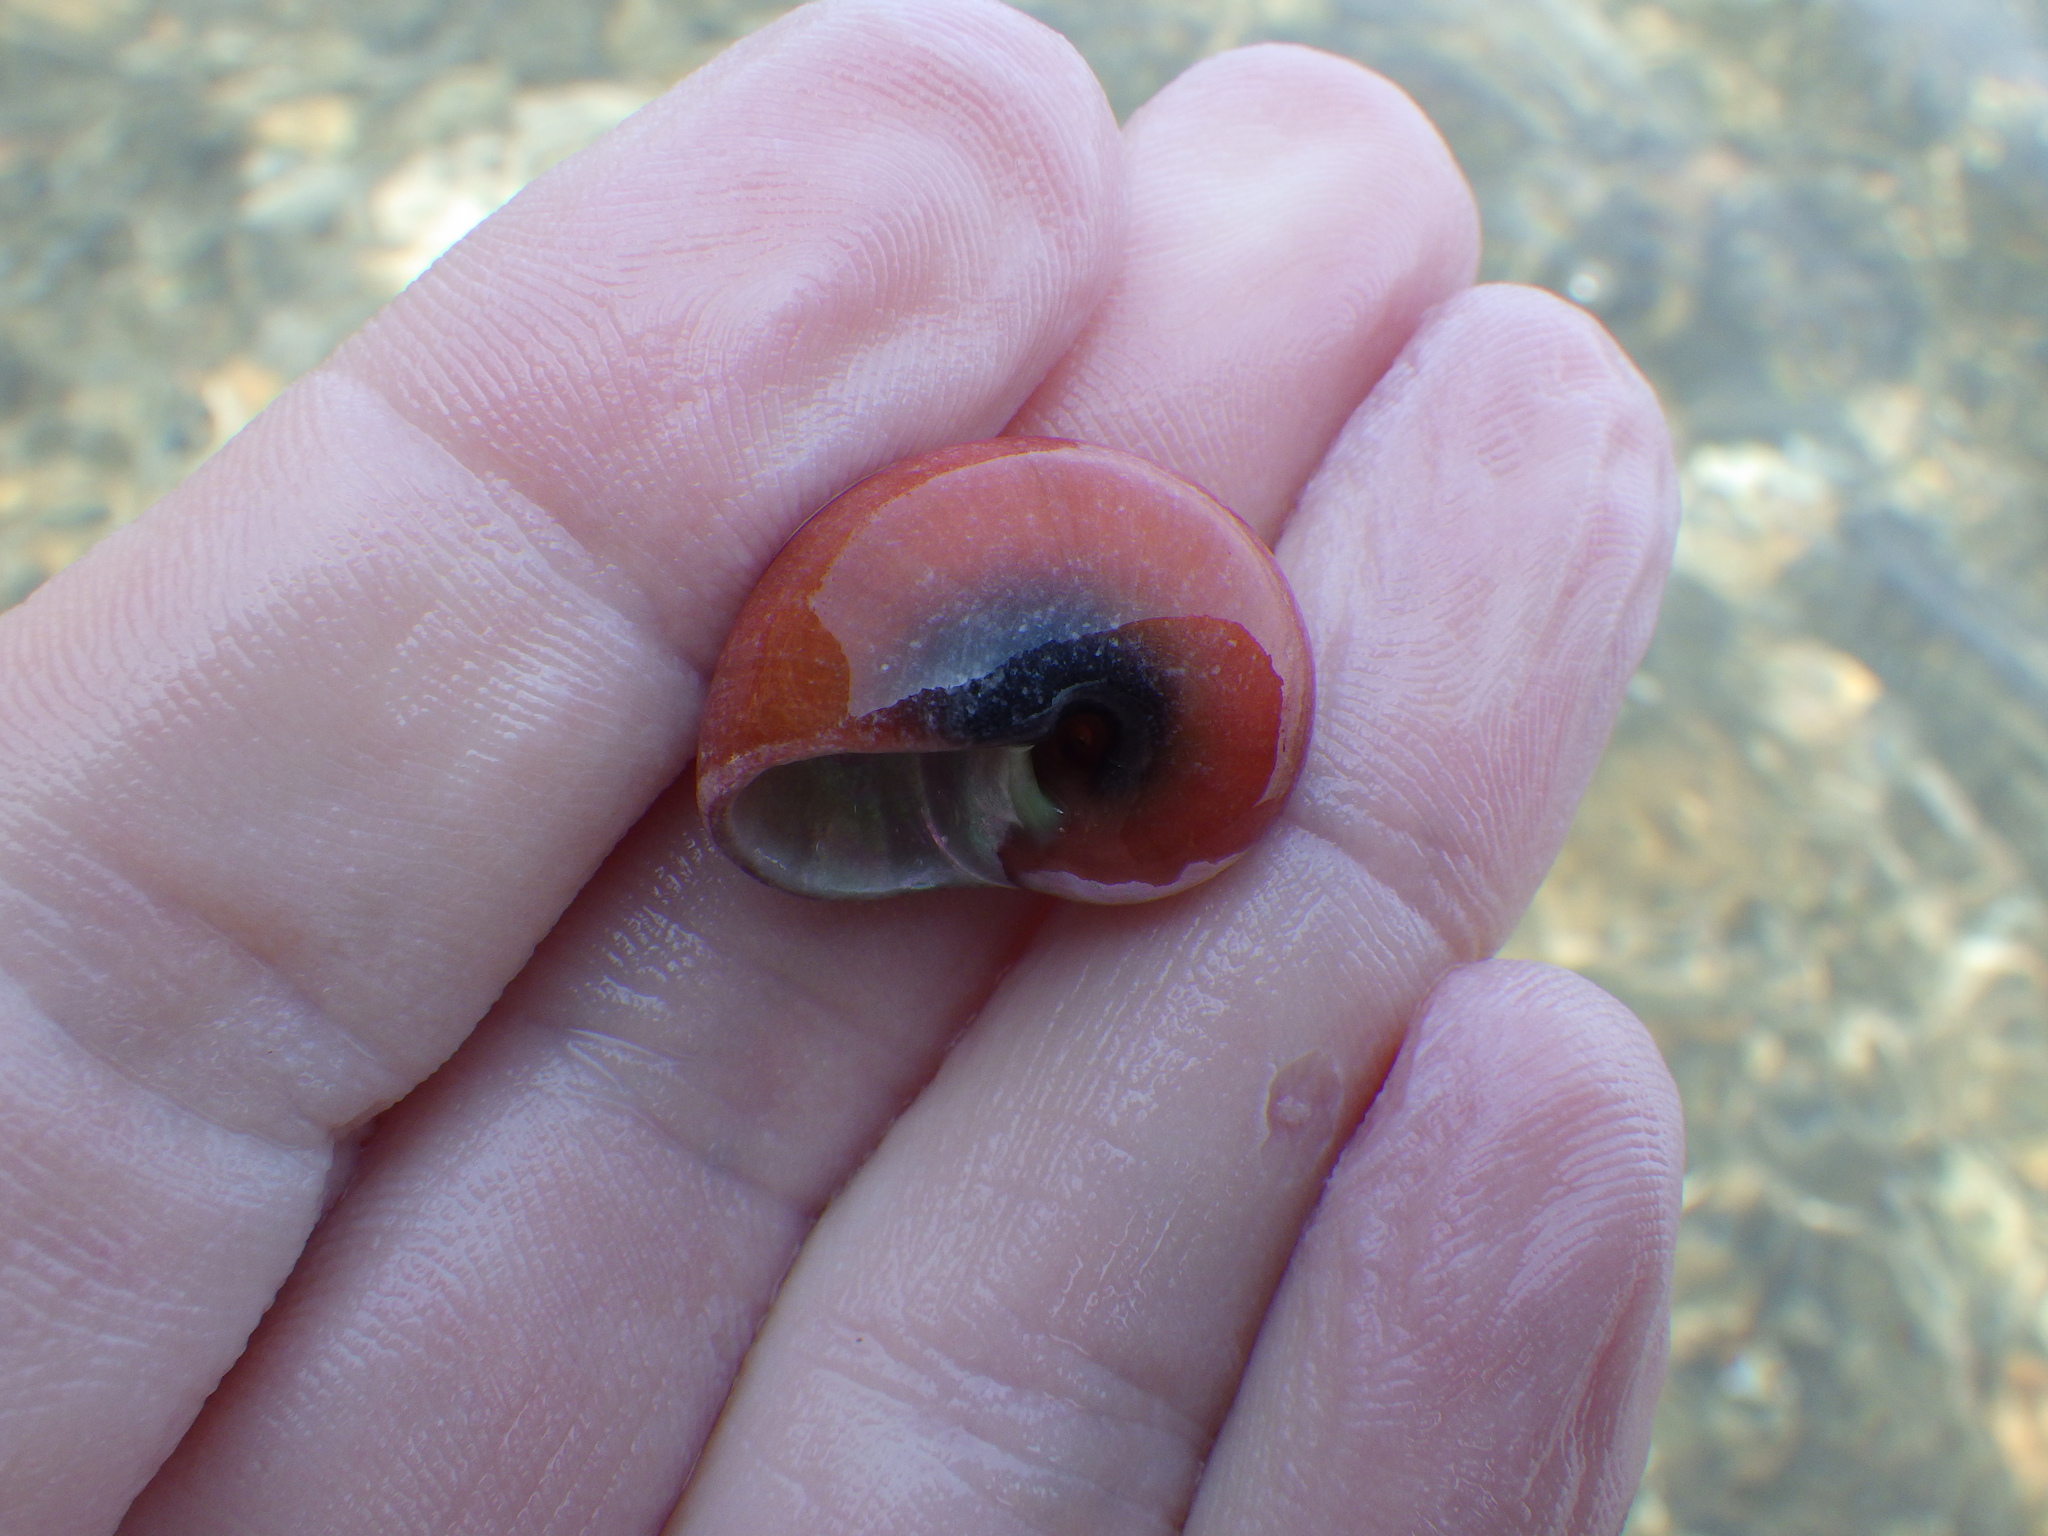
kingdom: Animalia
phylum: Mollusca
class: Gastropoda
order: Trochida
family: Tegulidae
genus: Norrisia
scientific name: Norrisia norrisii
